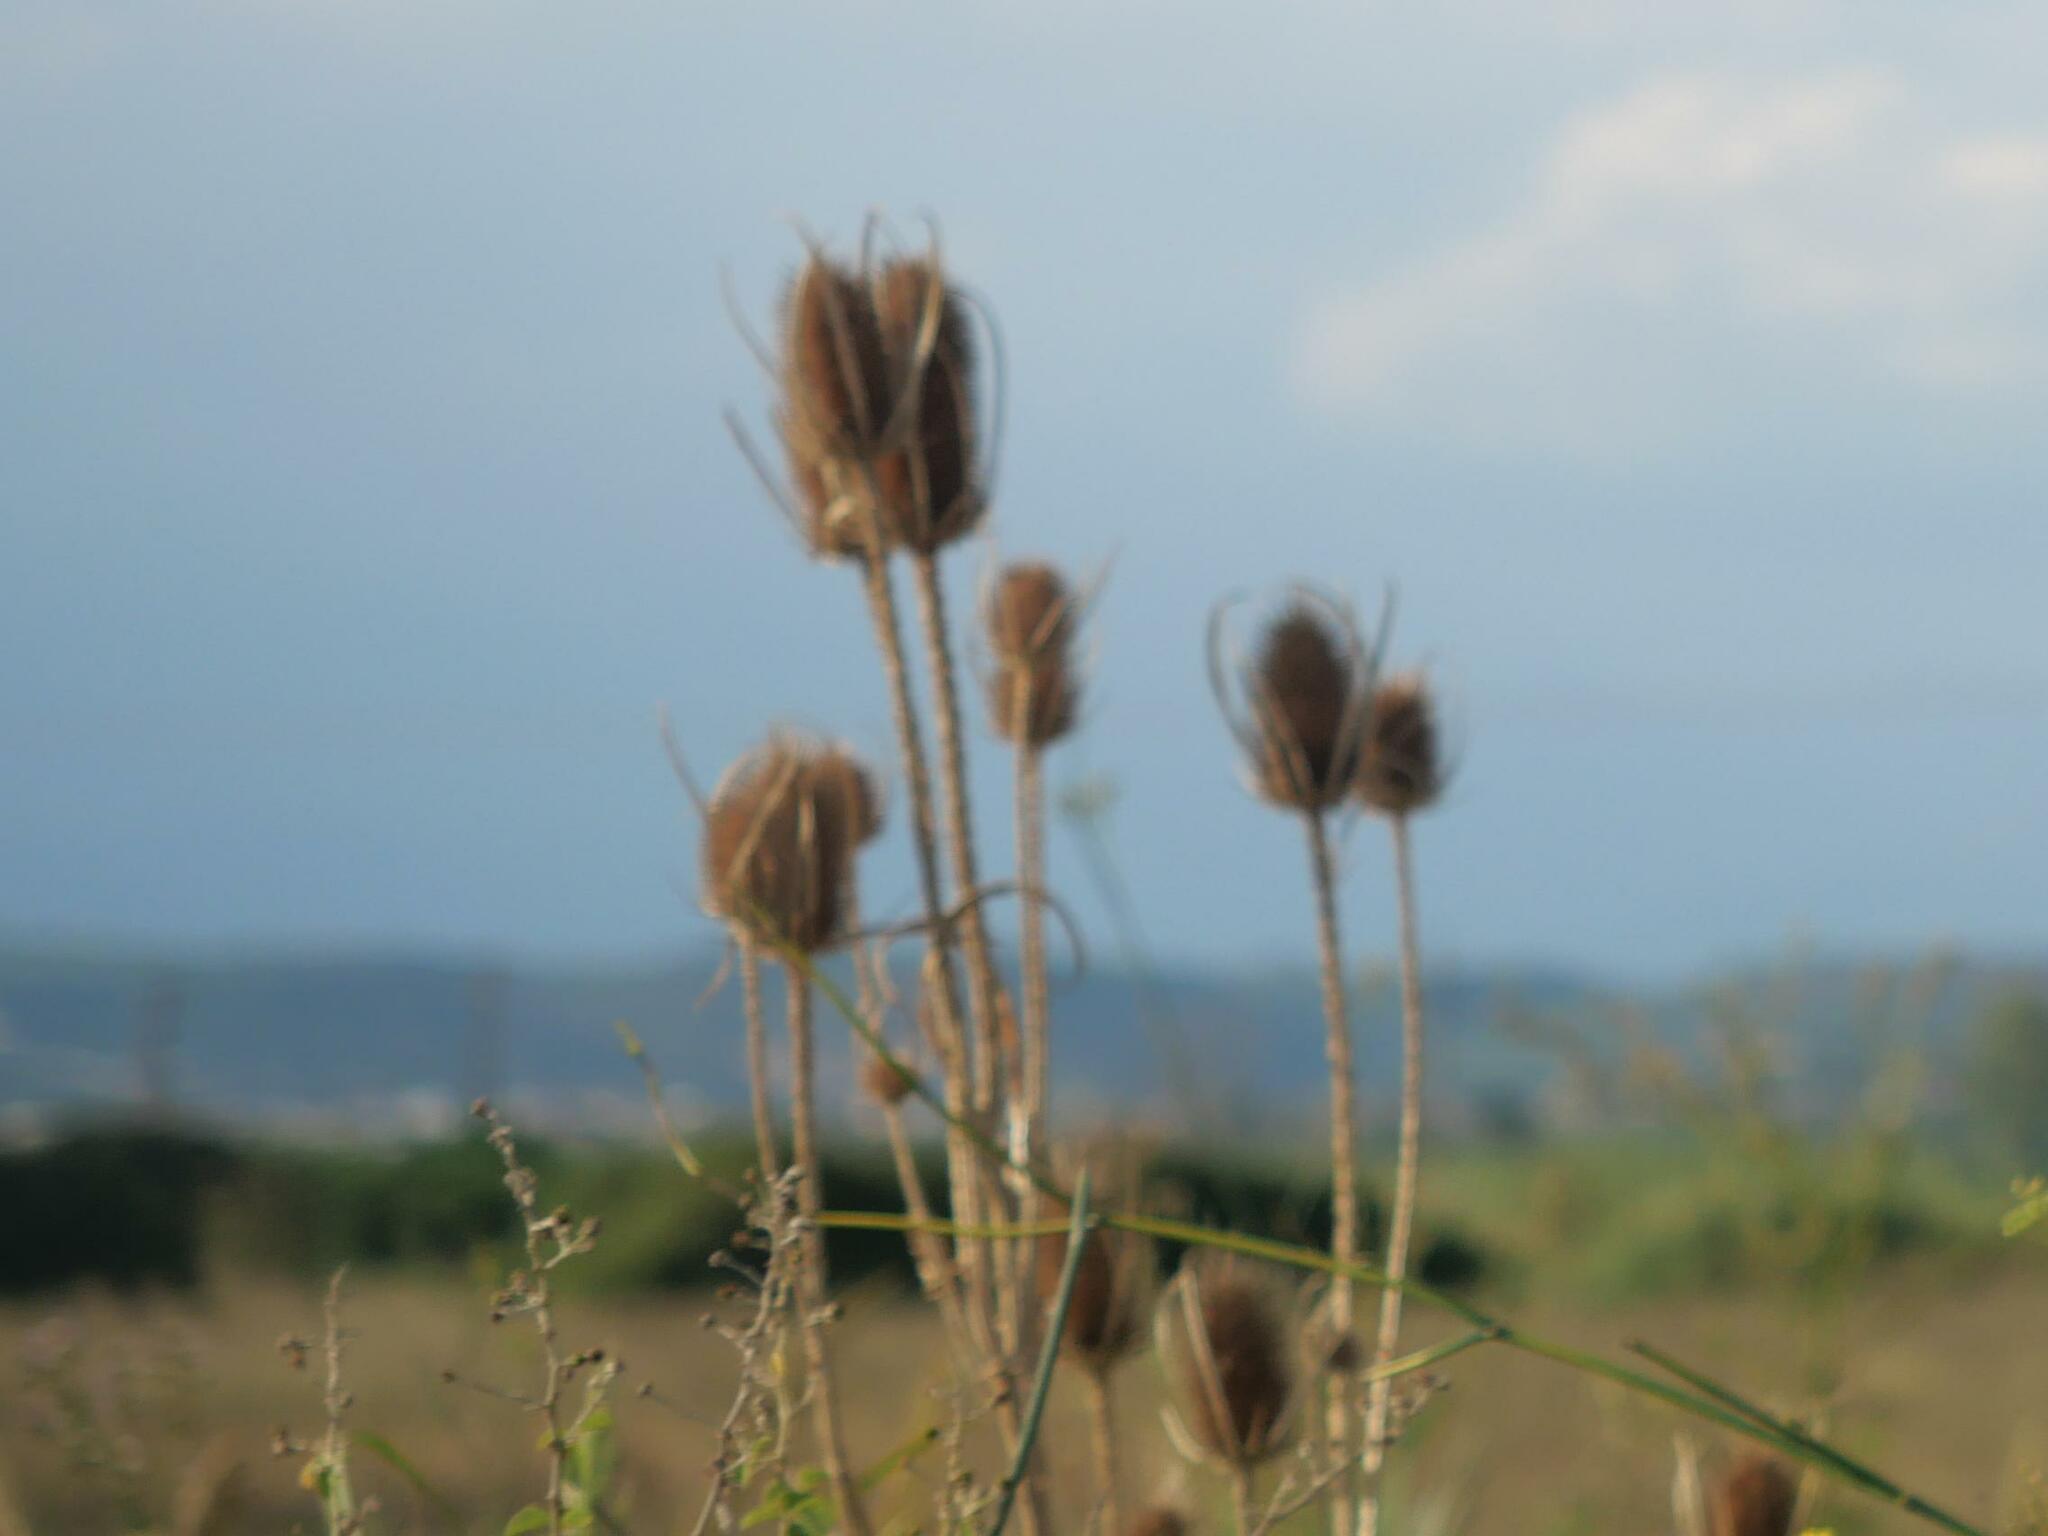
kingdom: Plantae
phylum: Tracheophyta
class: Magnoliopsida
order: Dipsacales
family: Caprifoliaceae
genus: Dipsacus
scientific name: Dipsacus fullonum
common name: Teasel
